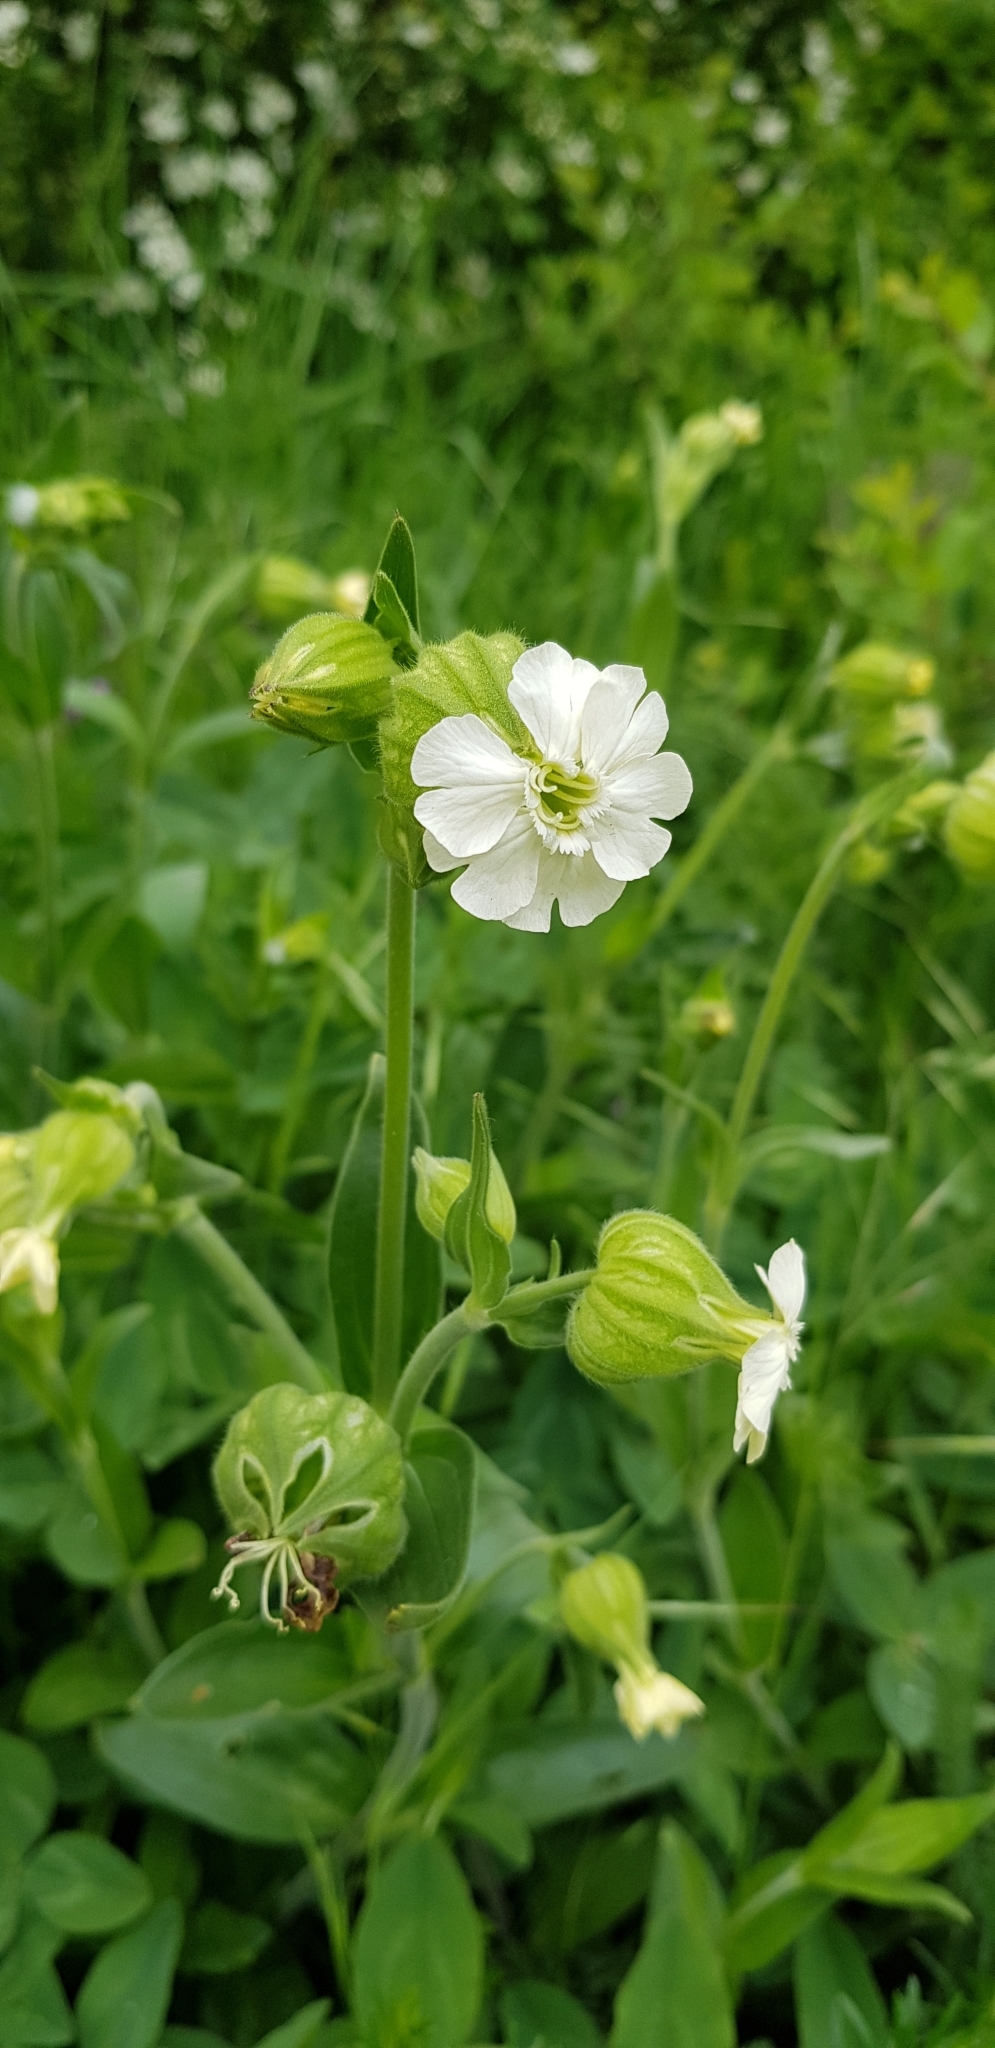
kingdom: Plantae
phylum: Tracheophyta
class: Magnoliopsida
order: Caryophyllales
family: Caryophyllaceae
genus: Silene
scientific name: Silene latifolia
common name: White campion
